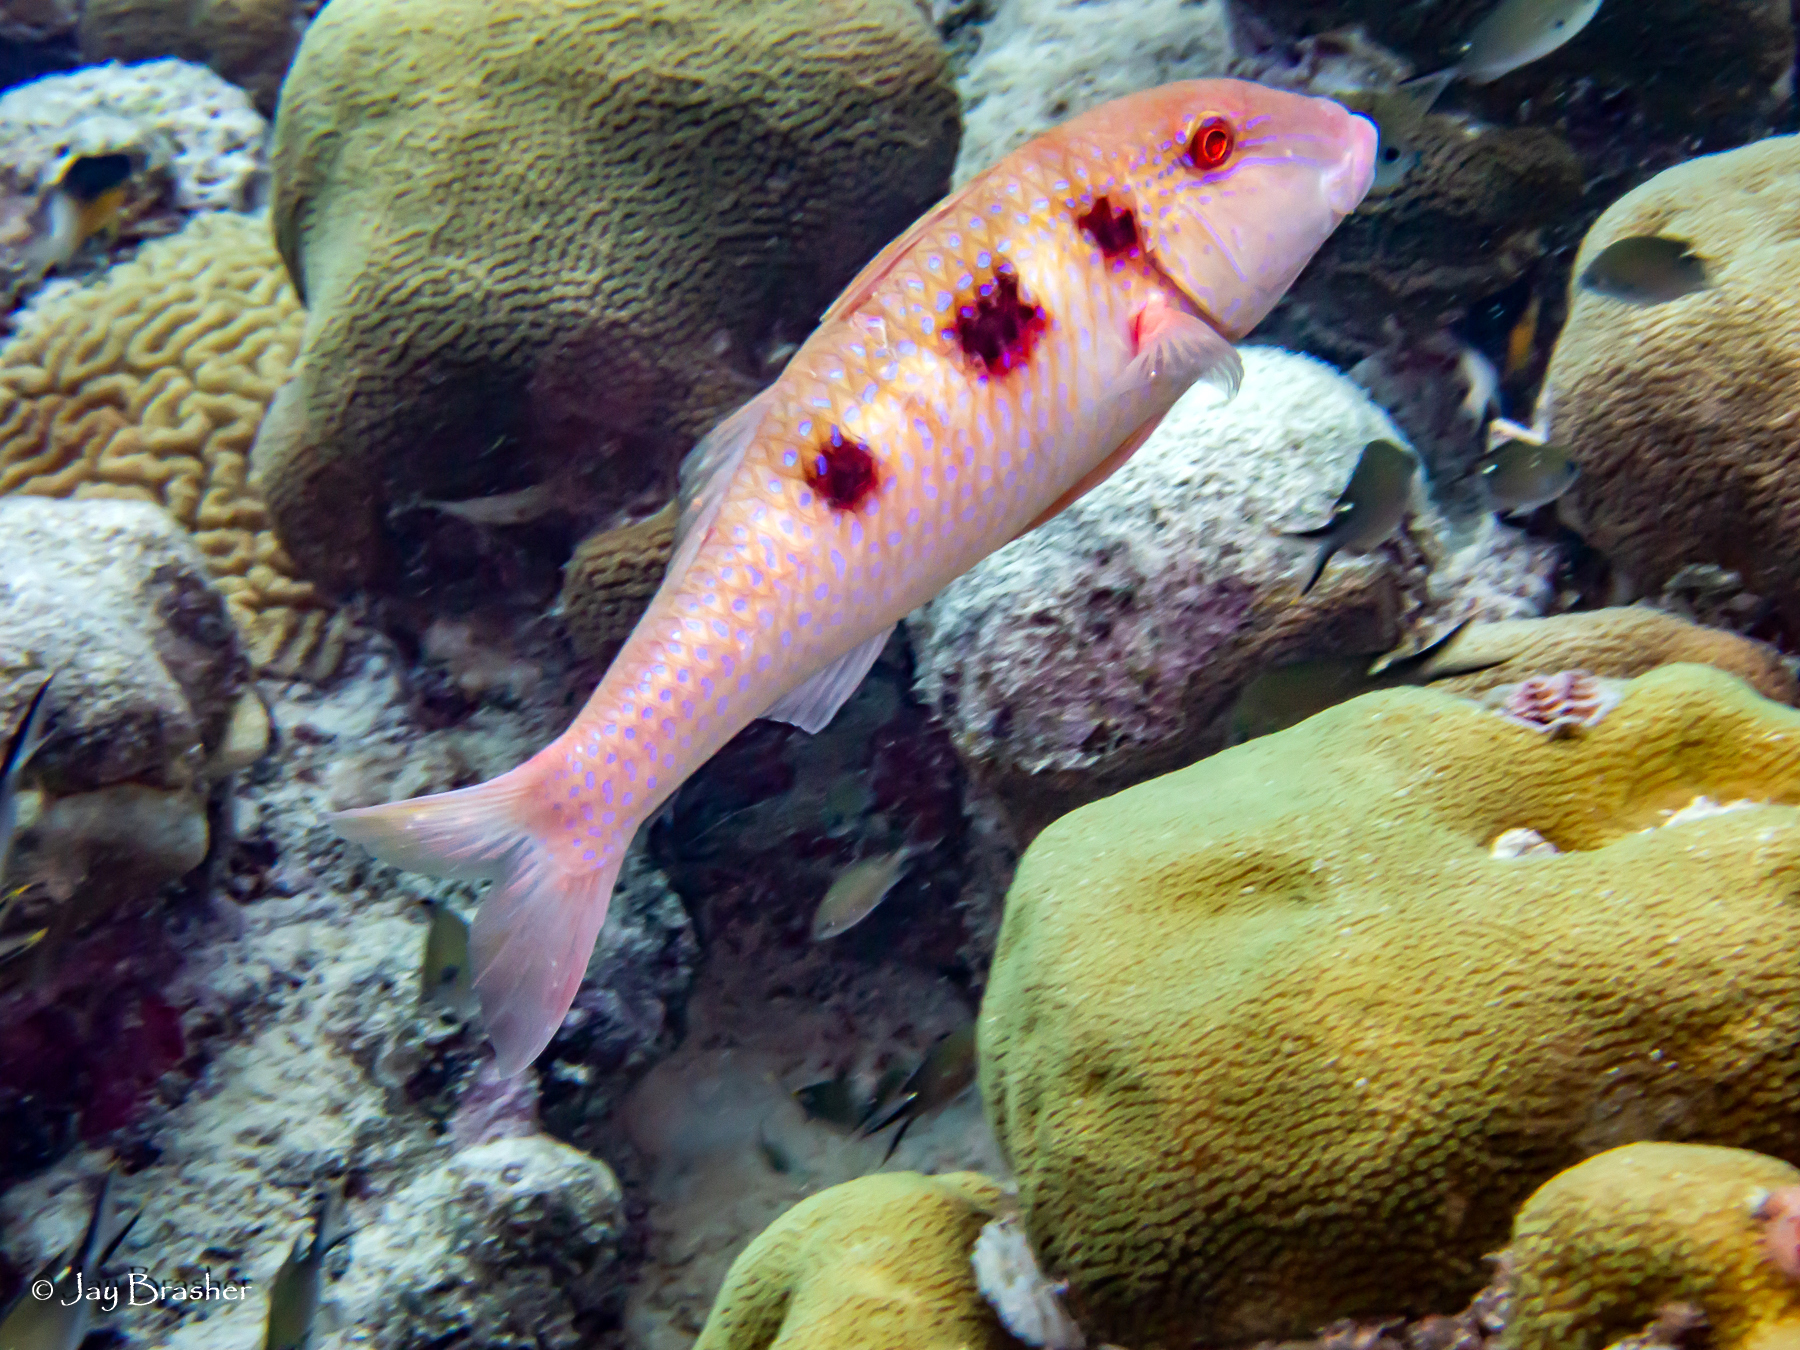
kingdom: Animalia
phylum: Chordata
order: Perciformes
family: Pomacentridae
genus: Chromis
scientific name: Chromis multilineata
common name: Brown chromis
